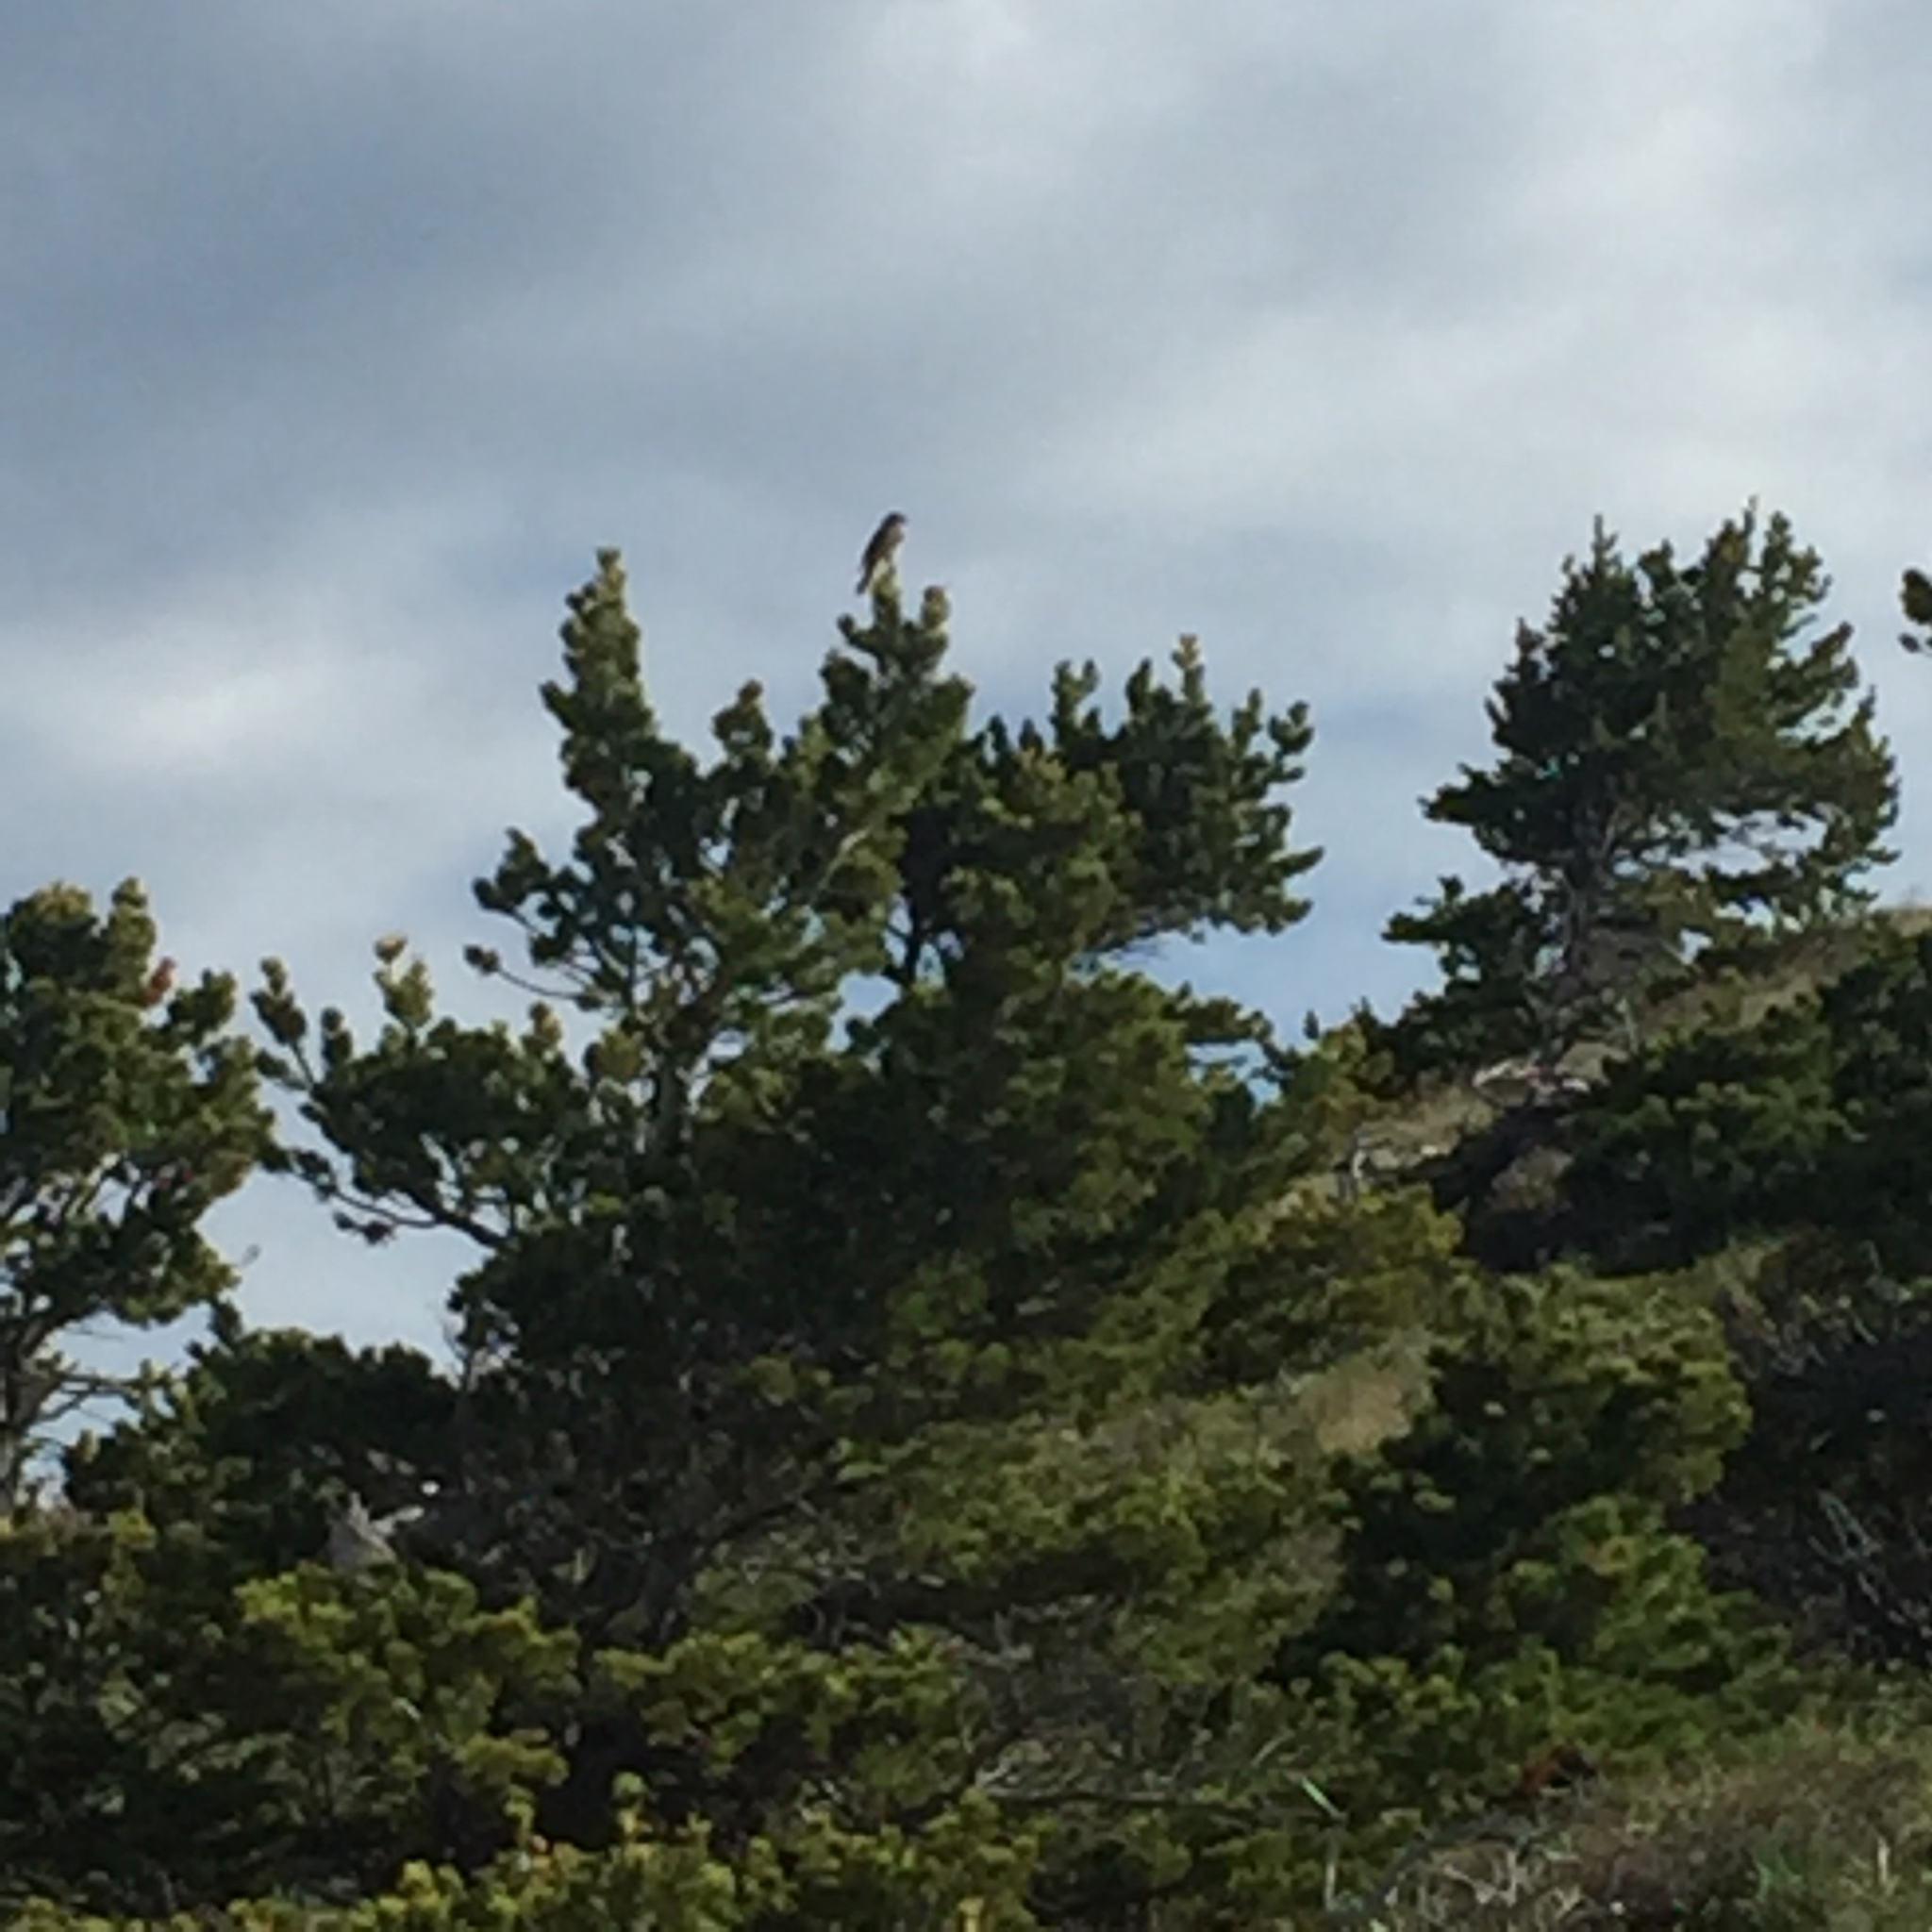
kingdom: Animalia
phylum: Chordata
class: Aves
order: Passeriformes
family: Turdidae
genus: Myadestes
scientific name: Myadestes townsendi
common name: Townsend's solitaire
